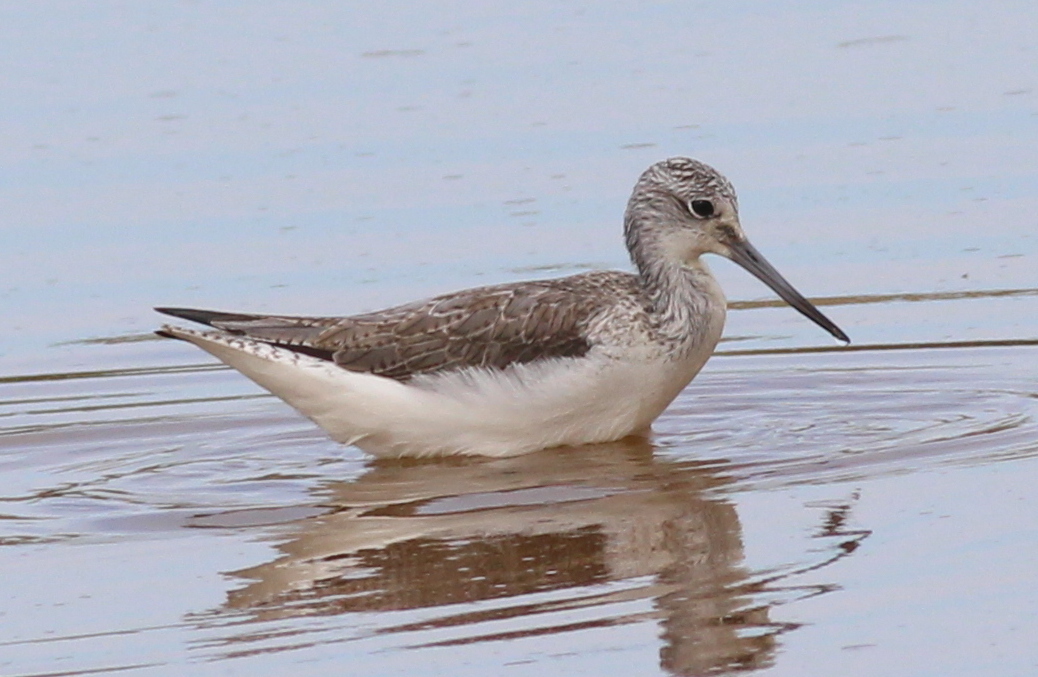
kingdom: Animalia
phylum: Chordata
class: Aves
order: Charadriiformes
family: Scolopacidae
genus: Tringa
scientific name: Tringa nebularia
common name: Common greenshank
